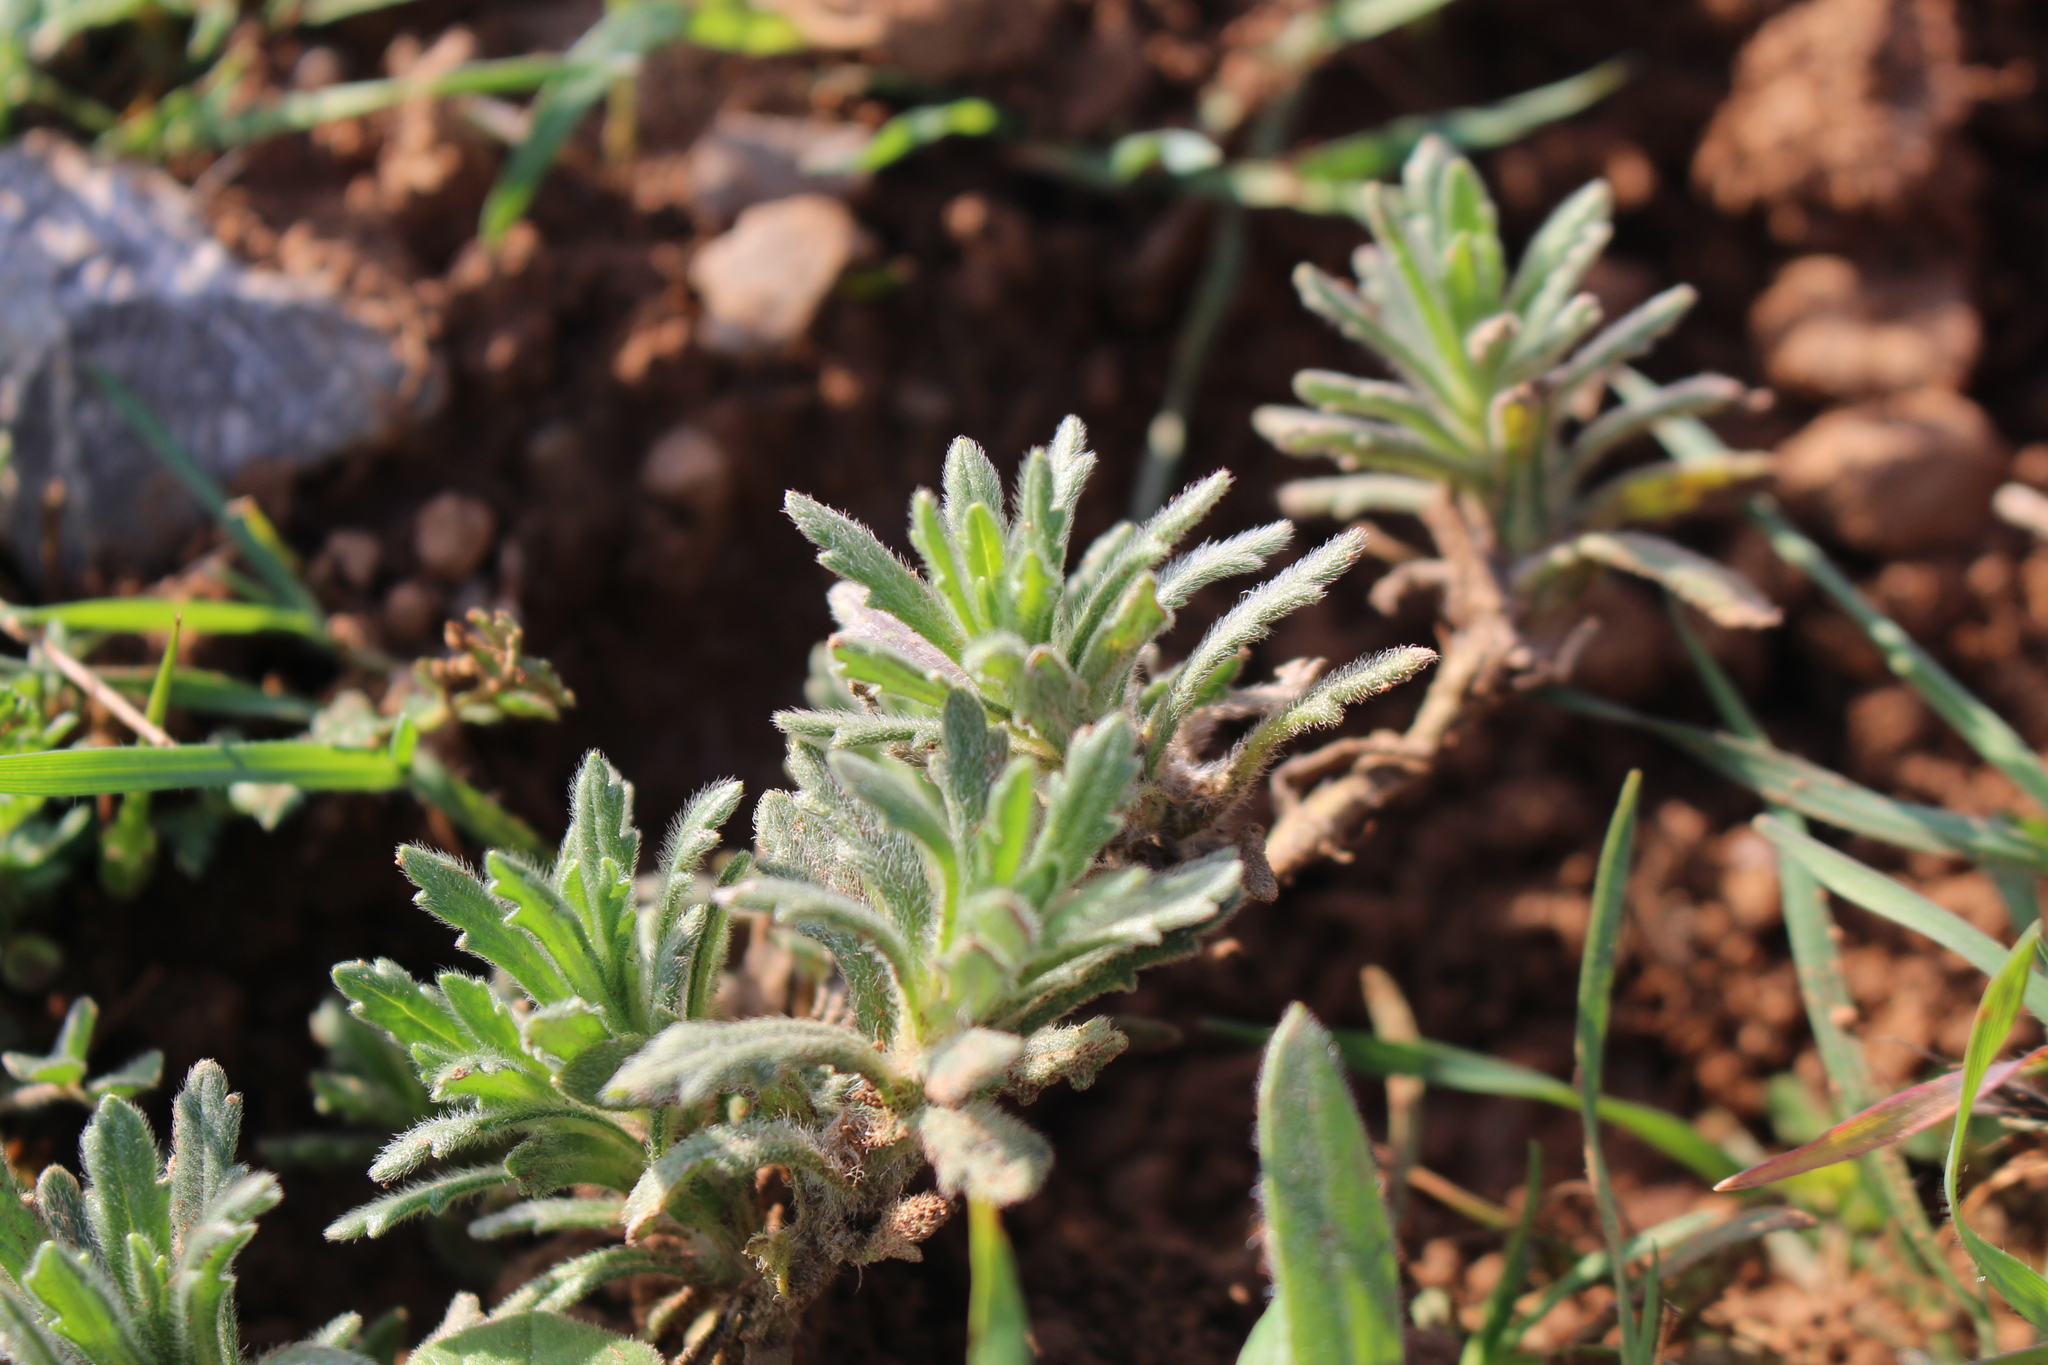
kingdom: Plantae
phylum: Tracheophyta
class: Magnoliopsida
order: Lamiales
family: Lamiaceae
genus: Ajuga
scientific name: Ajuga iva
